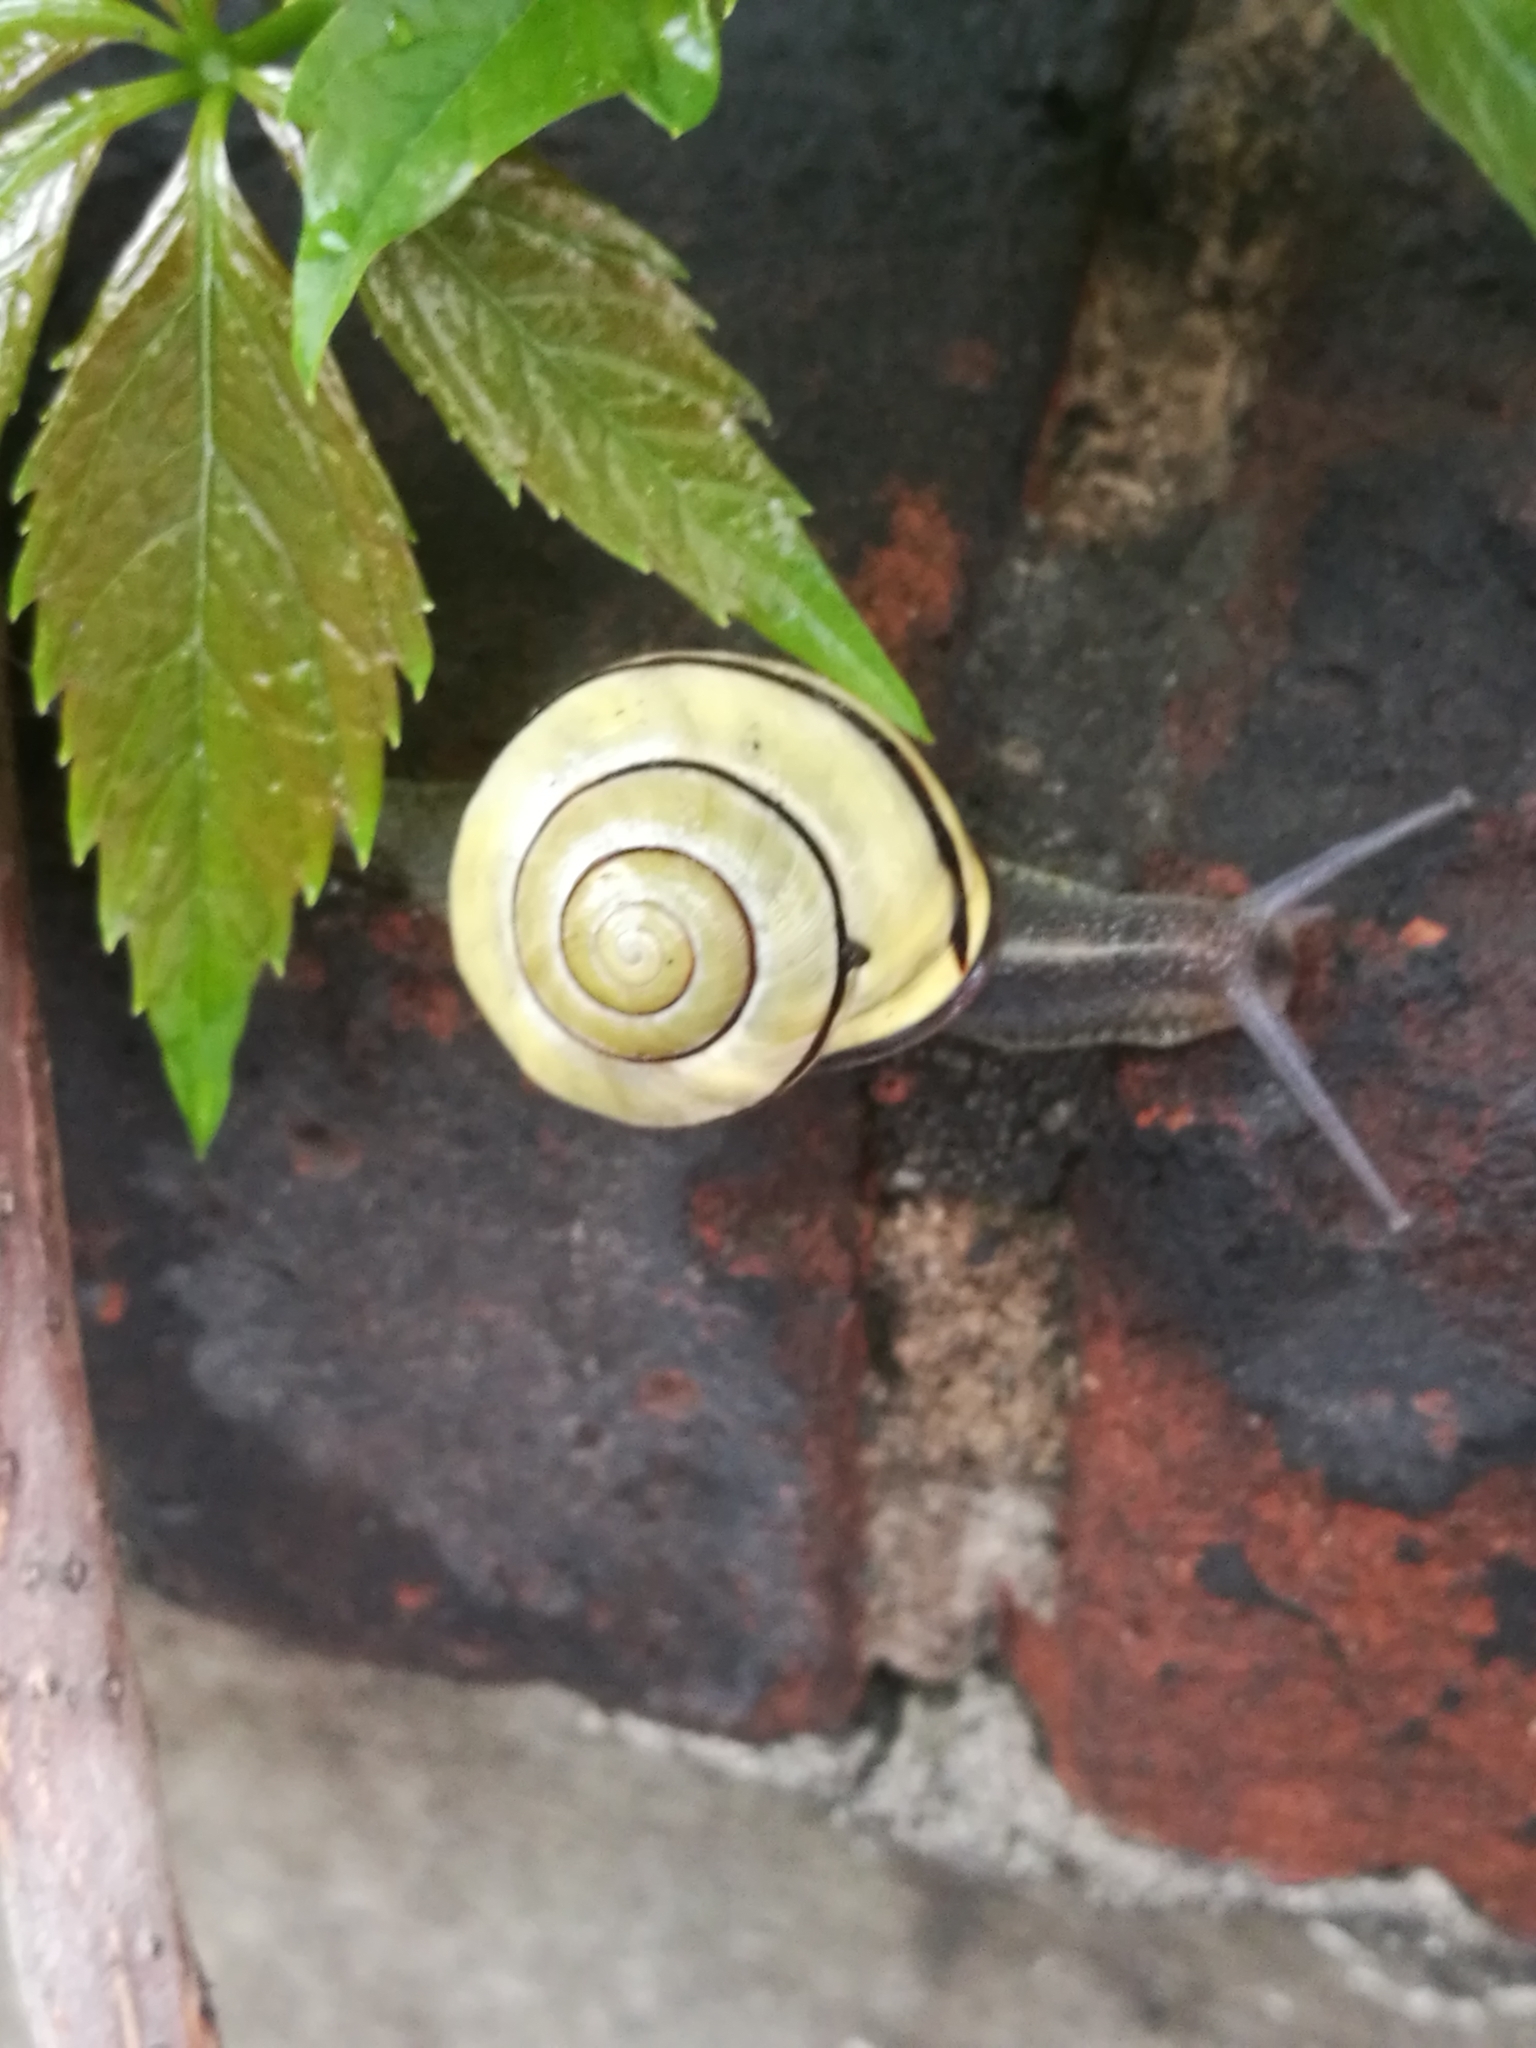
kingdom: Animalia
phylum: Mollusca
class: Gastropoda
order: Stylommatophora
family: Helicidae
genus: Cepaea
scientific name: Cepaea nemoralis
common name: Grovesnail
